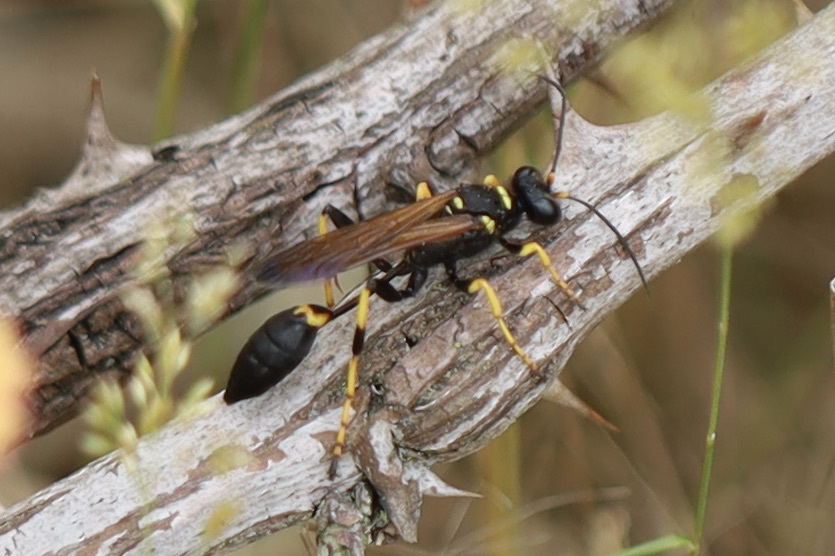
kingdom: Animalia
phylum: Arthropoda
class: Insecta
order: Hymenoptera
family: Sphecidae
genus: Sceliphron
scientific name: Sceliphron caementarium
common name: Mud dauber
